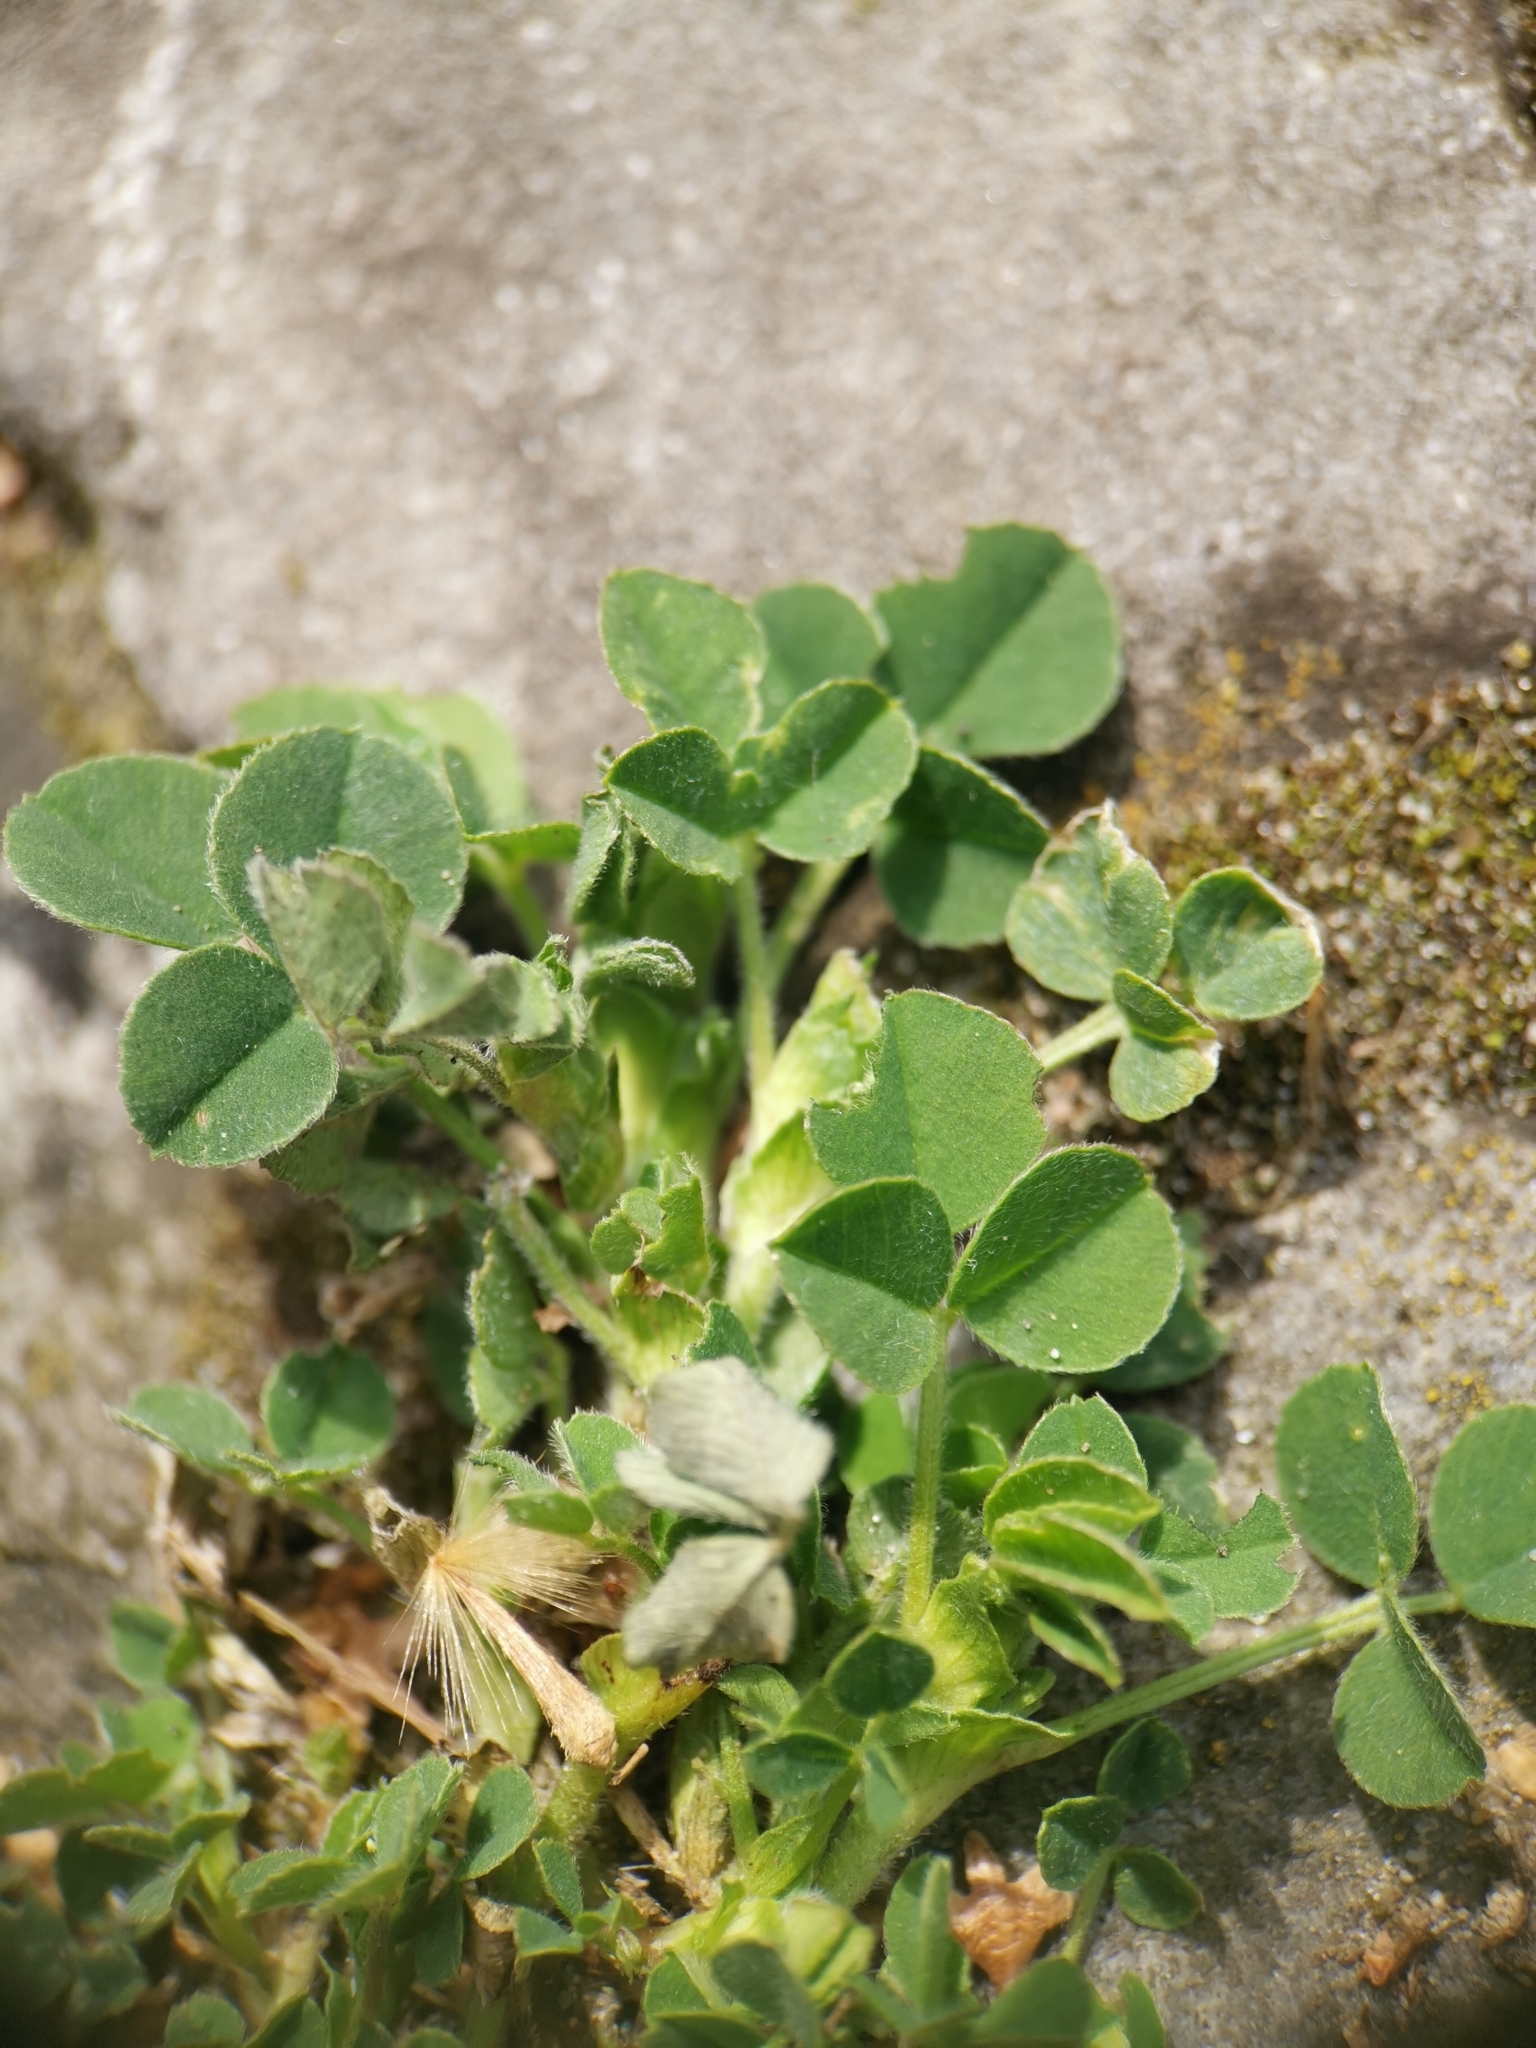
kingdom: Plantae
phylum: Tracheophyta
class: Magnoliopsida
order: Fabales
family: Fabaceae
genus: Medicago
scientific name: Medicago lupulina
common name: Black medick
